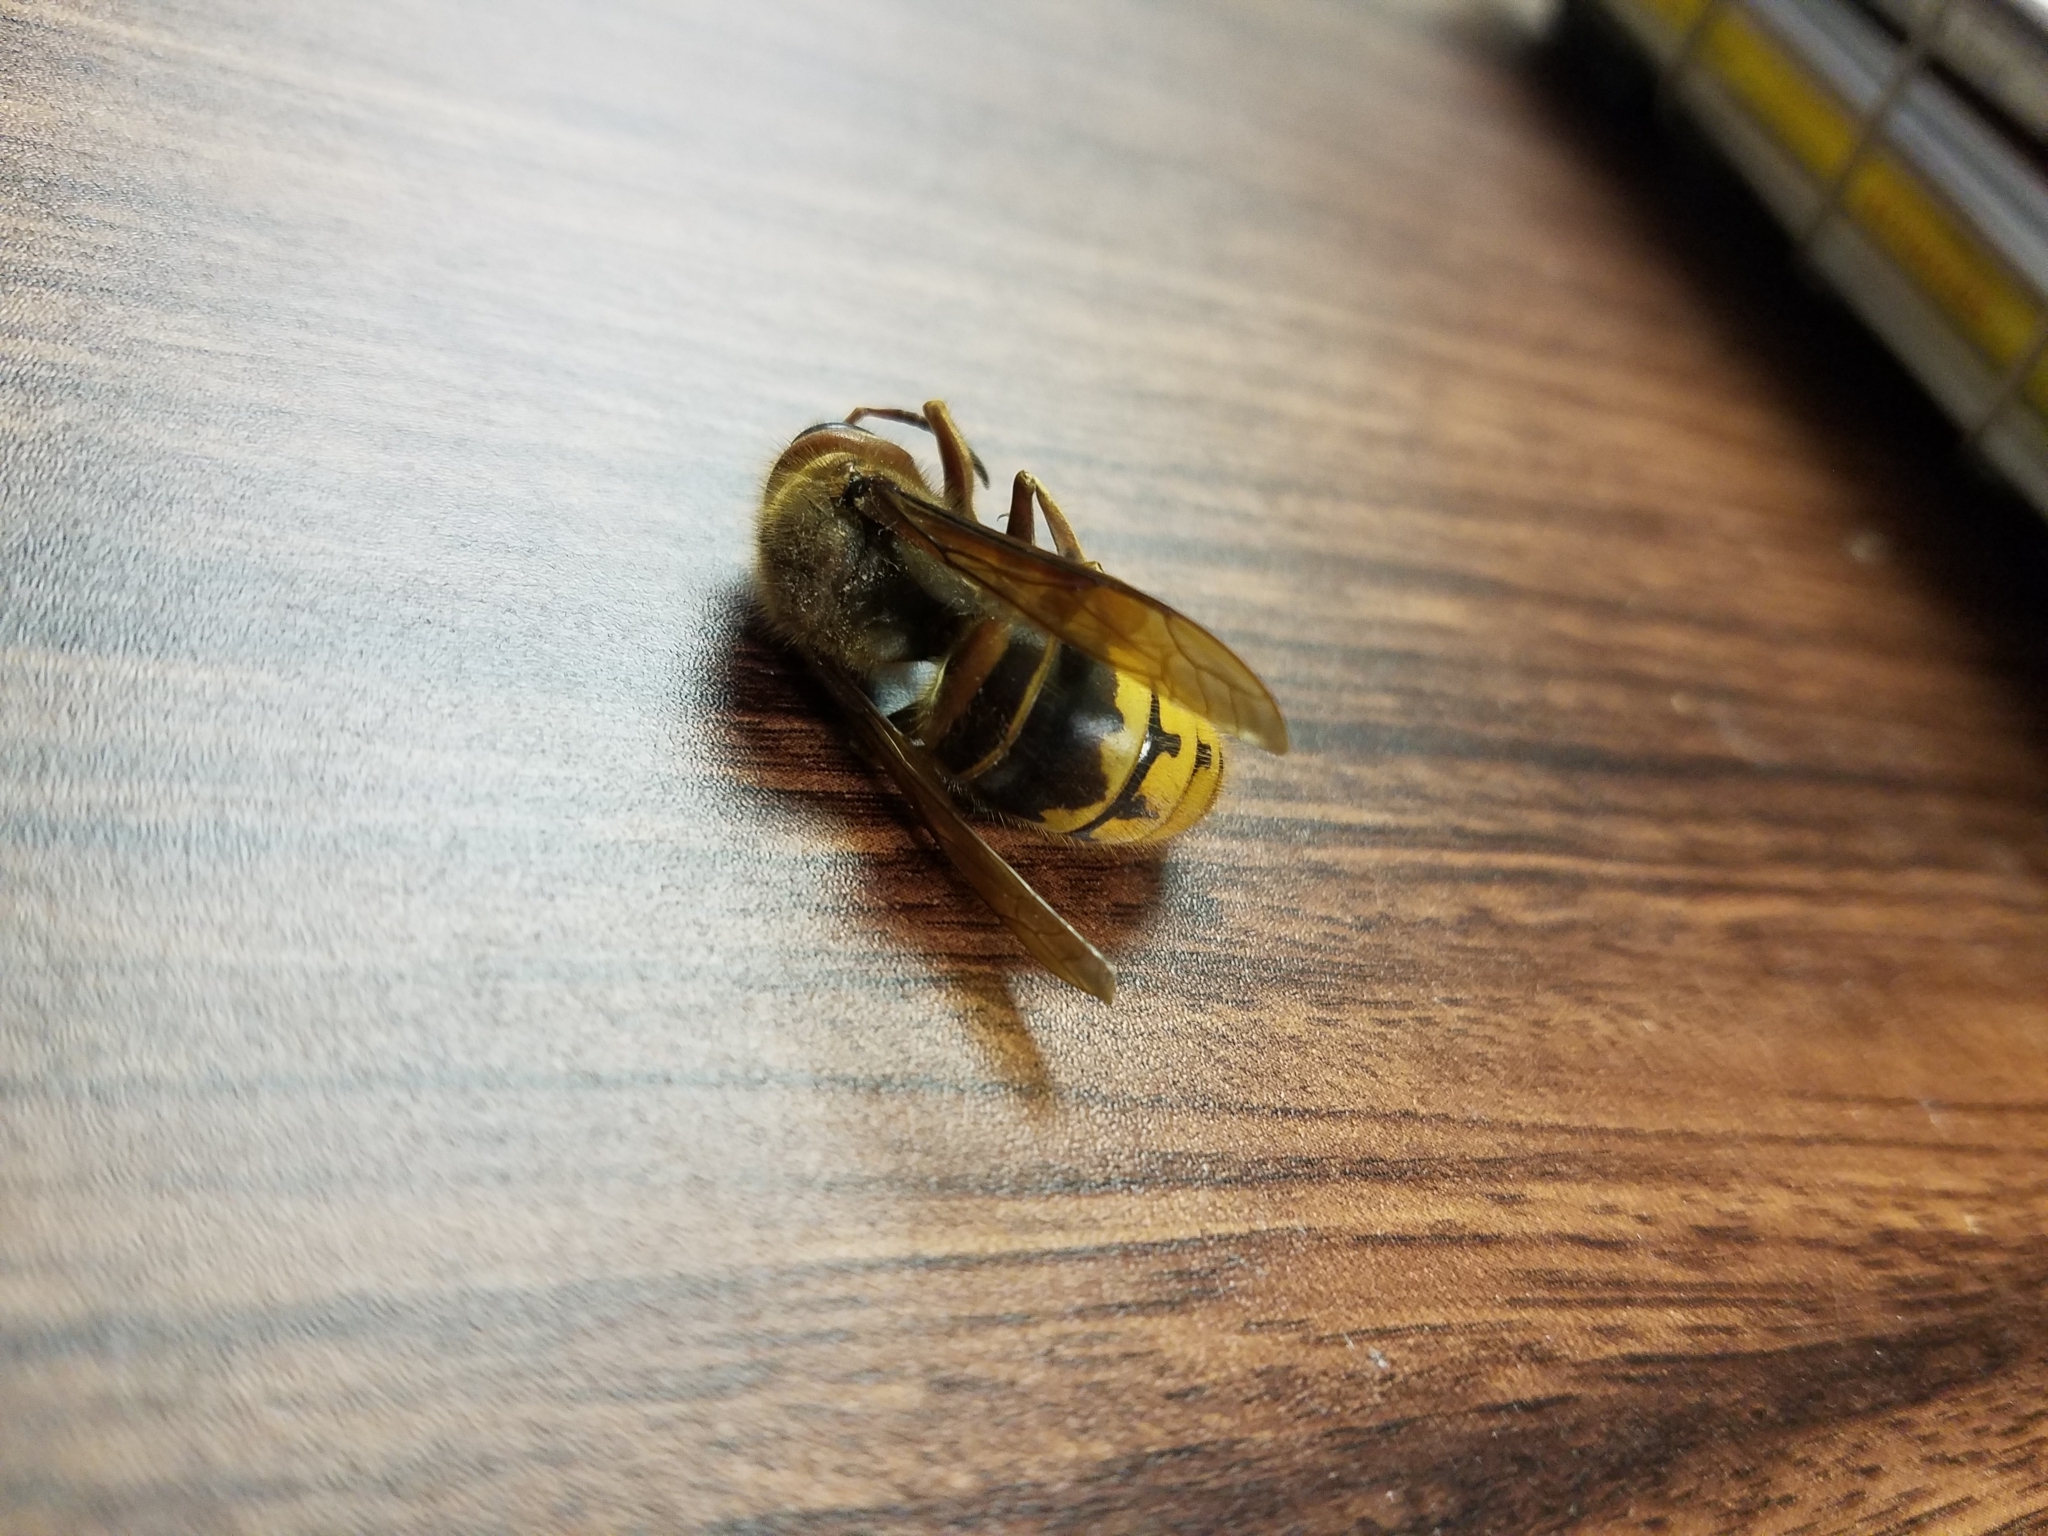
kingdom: Animalia
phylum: Arthropoda
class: Insecta
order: Hymenoptera
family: Vespidae
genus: Vespa
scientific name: Vespa crabro
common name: Hornet
